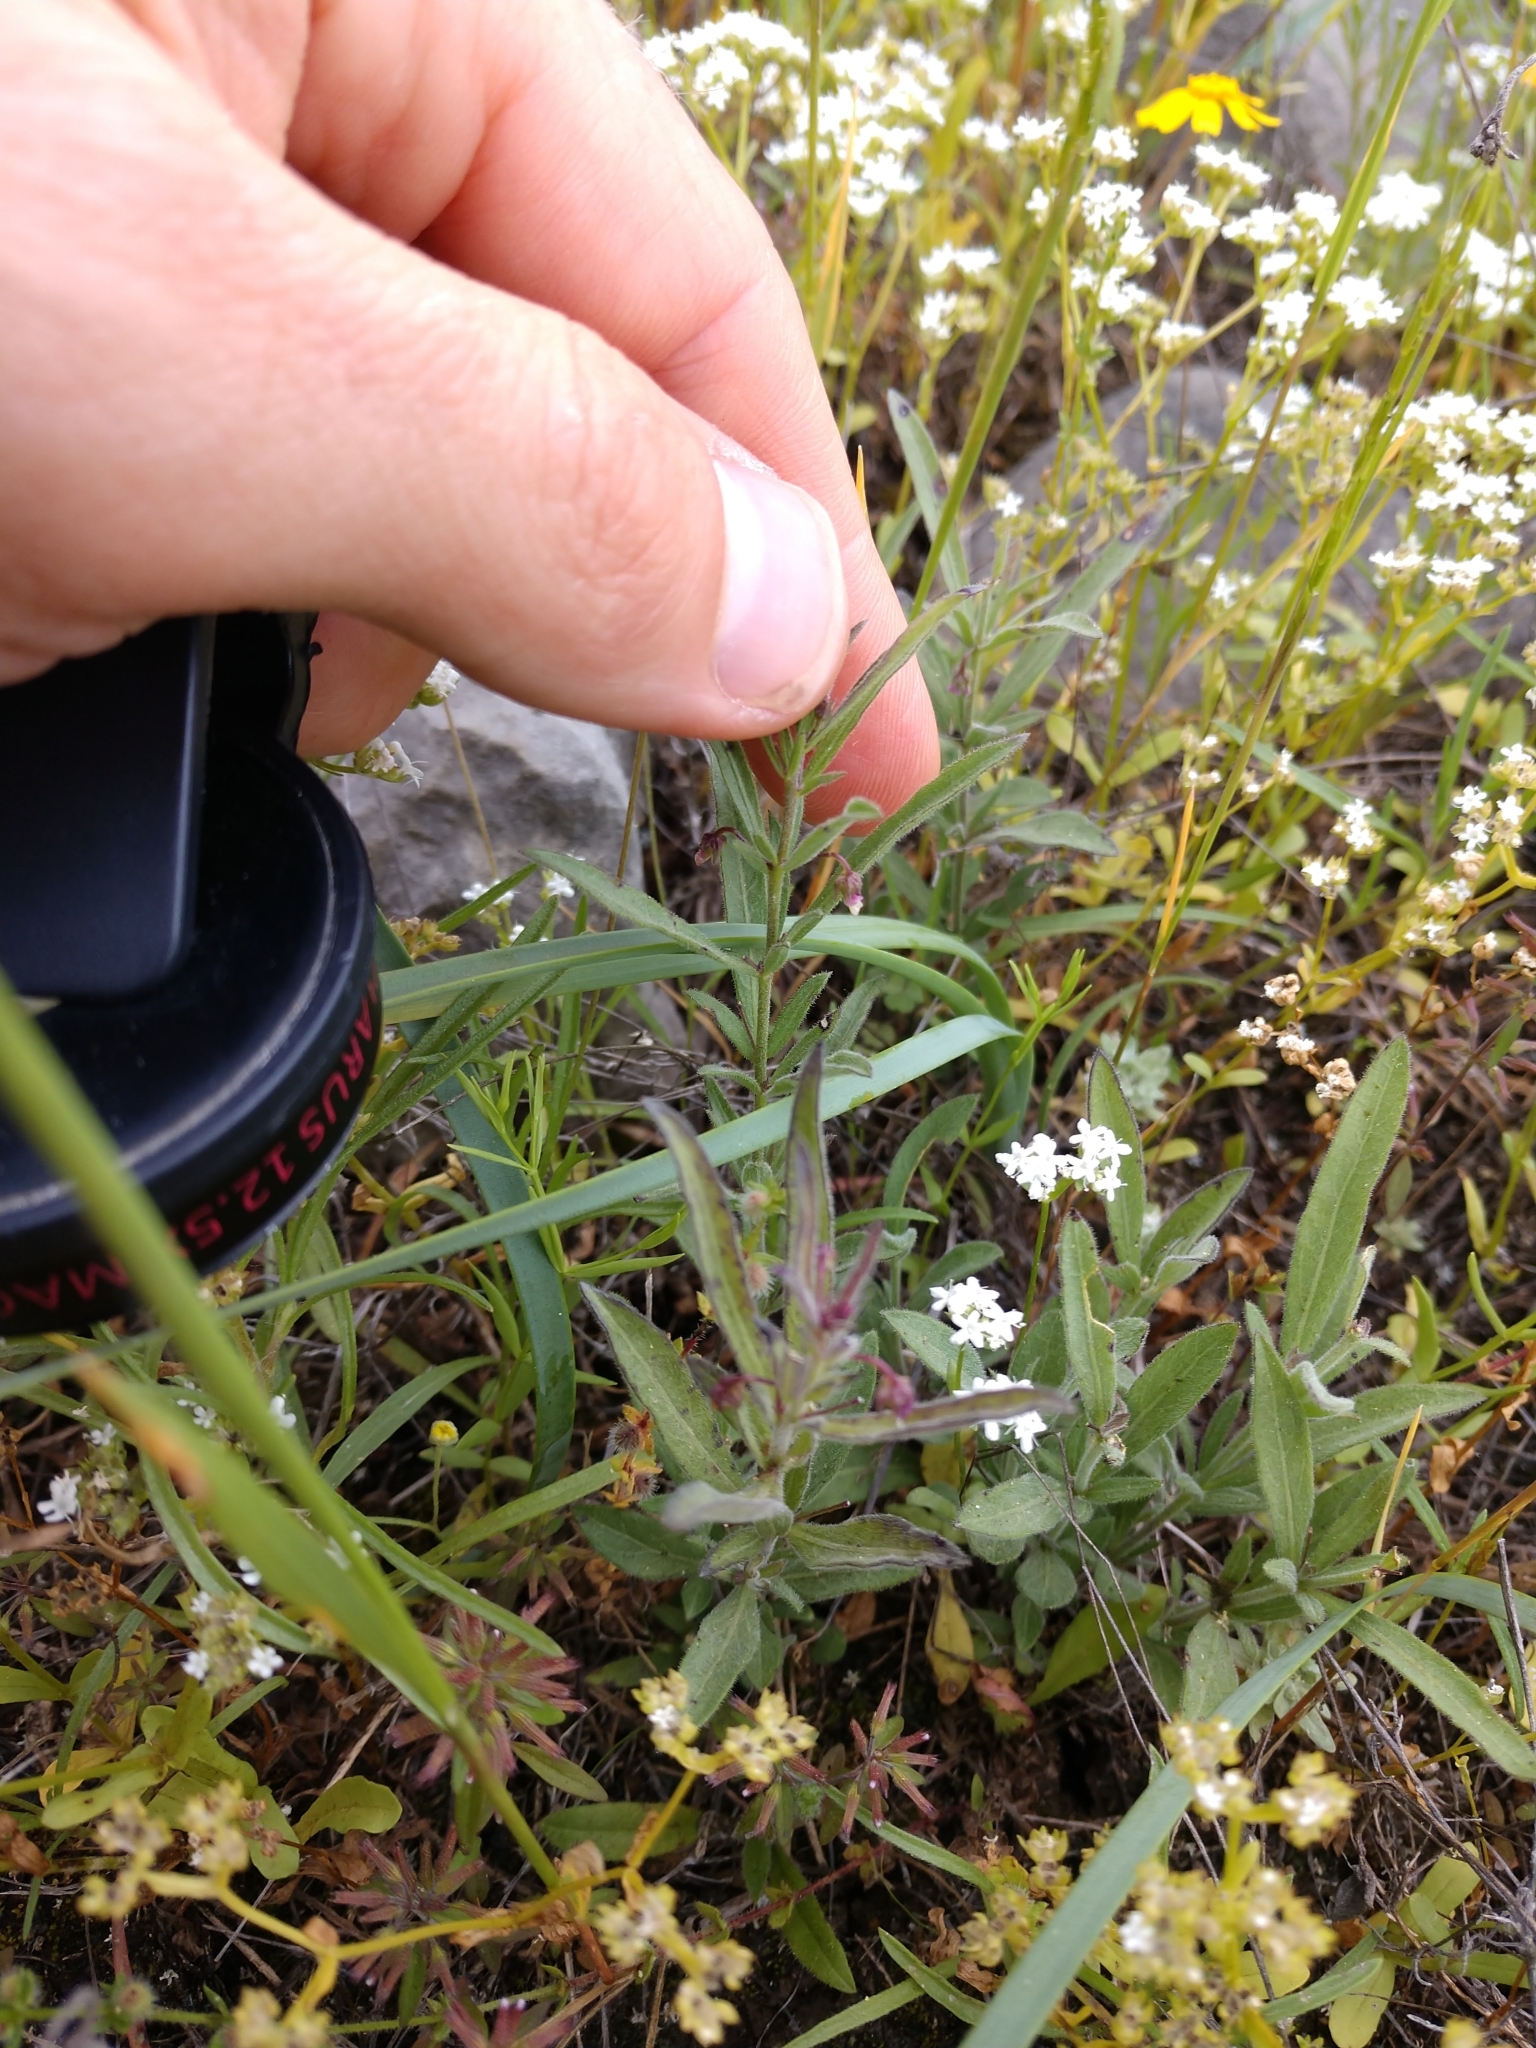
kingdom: Plantae
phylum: Tracheophyta
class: Magnoliopsida
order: Malpighiales
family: Violaceae
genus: Pombalia
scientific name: Pombalia verticillata
